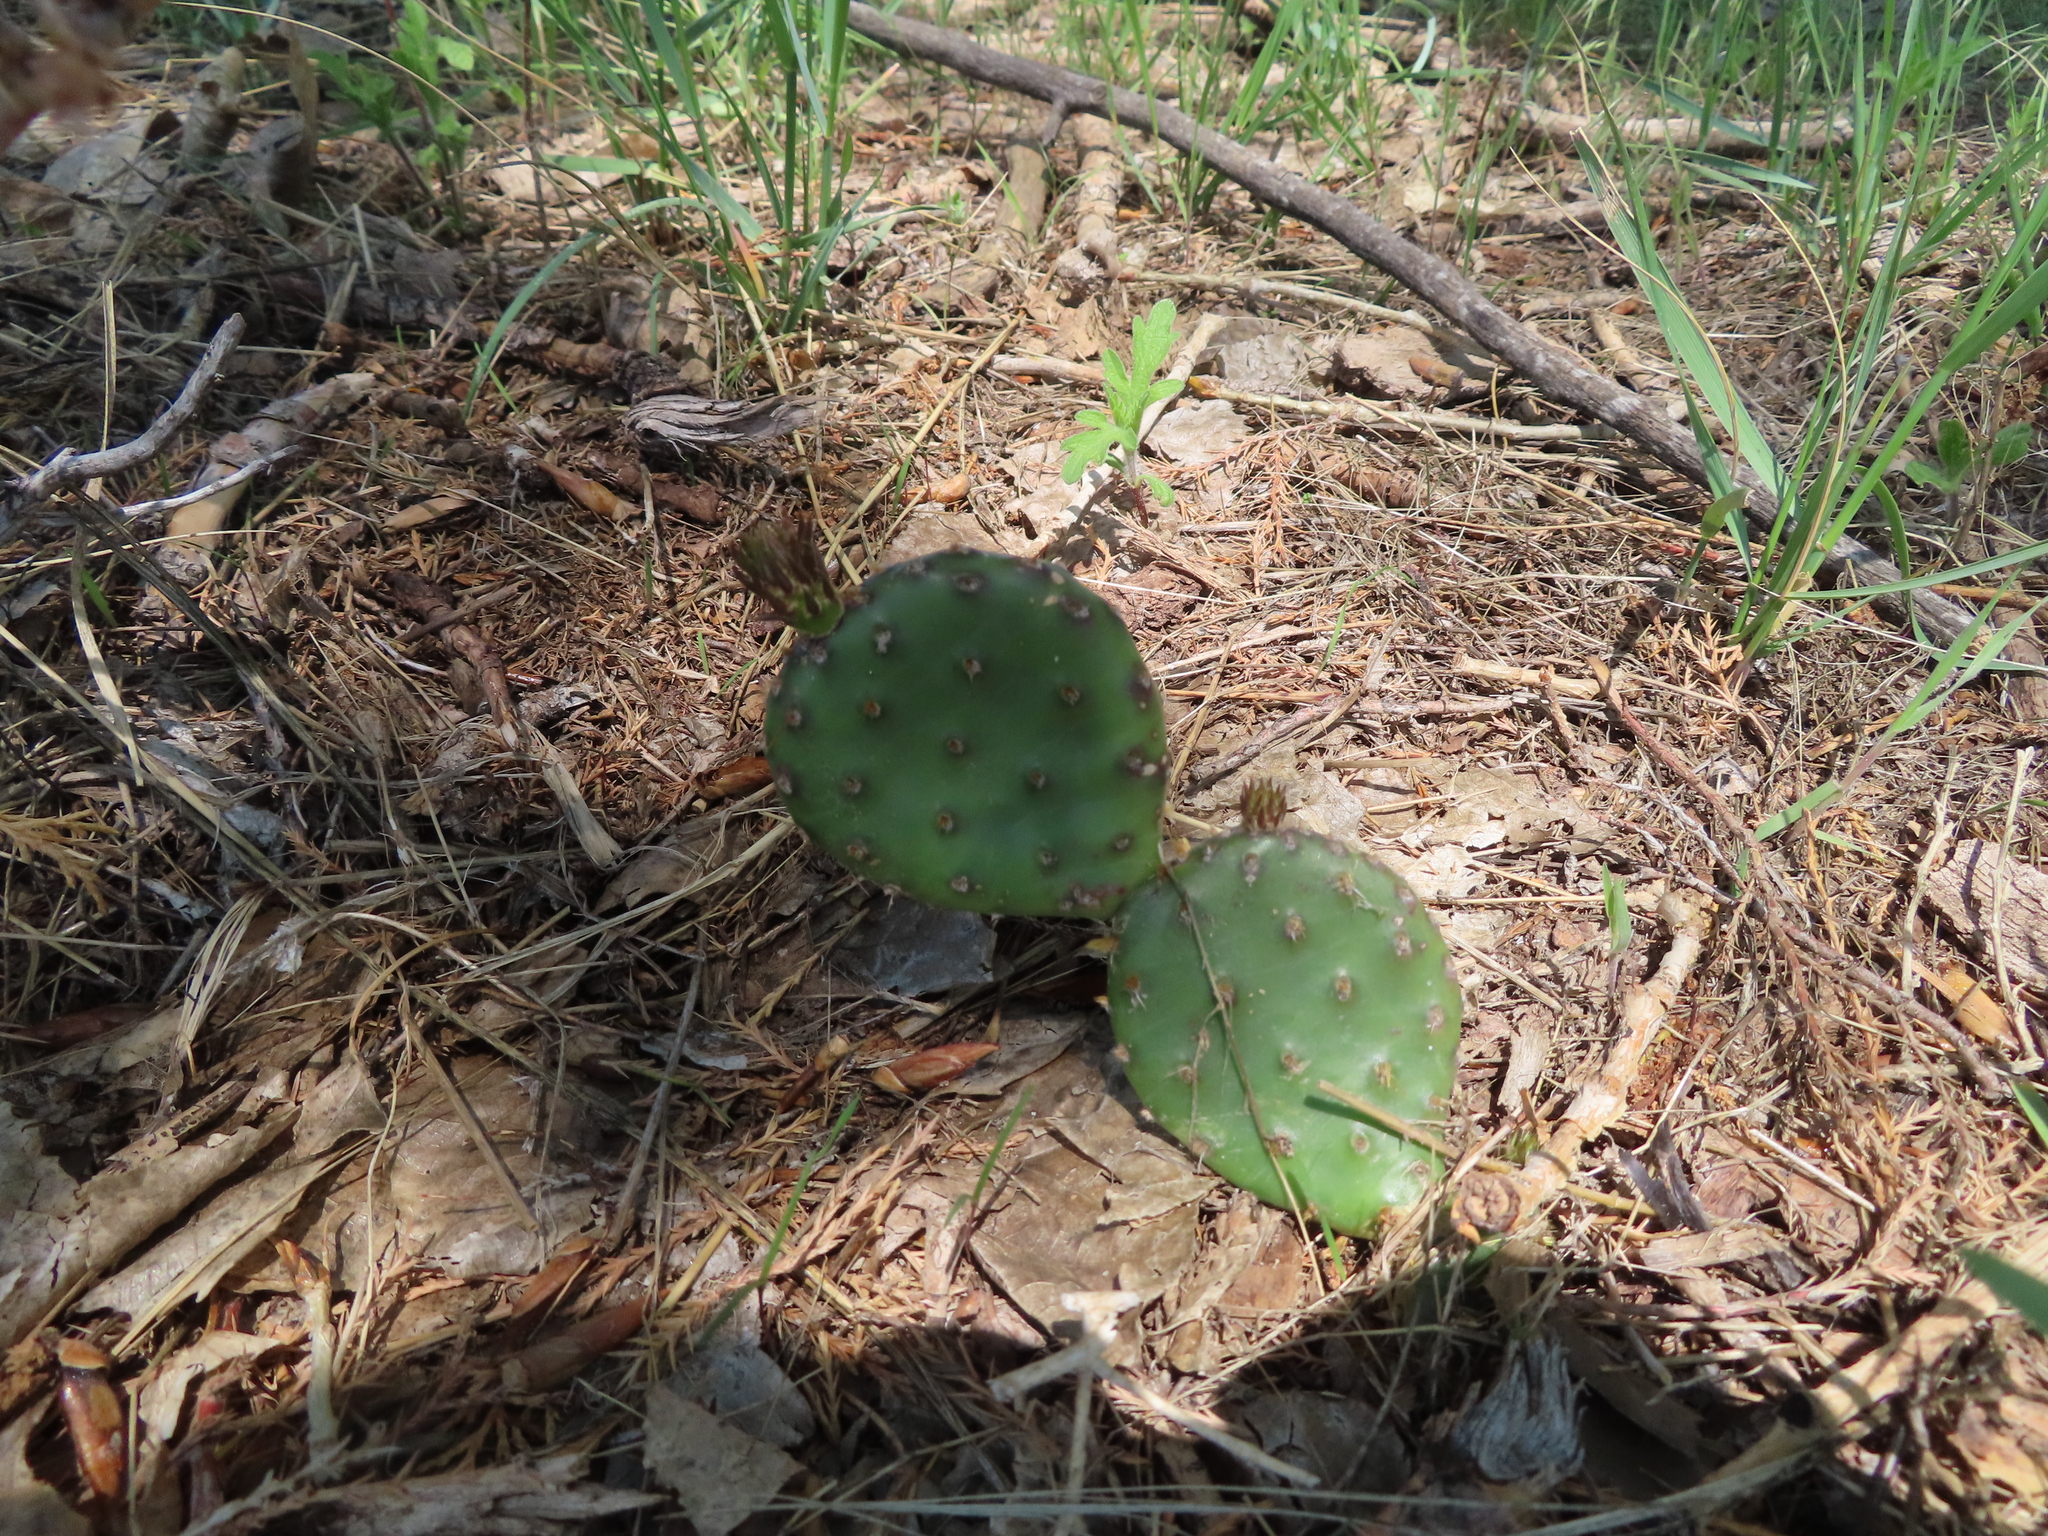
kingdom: Plantae
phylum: Tracheophyta
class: Magnoliopsida
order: Caryophyllales
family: Cactaceae
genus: Opuntia
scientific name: Opuntia macrorhiza
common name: Grassland pricklypear
